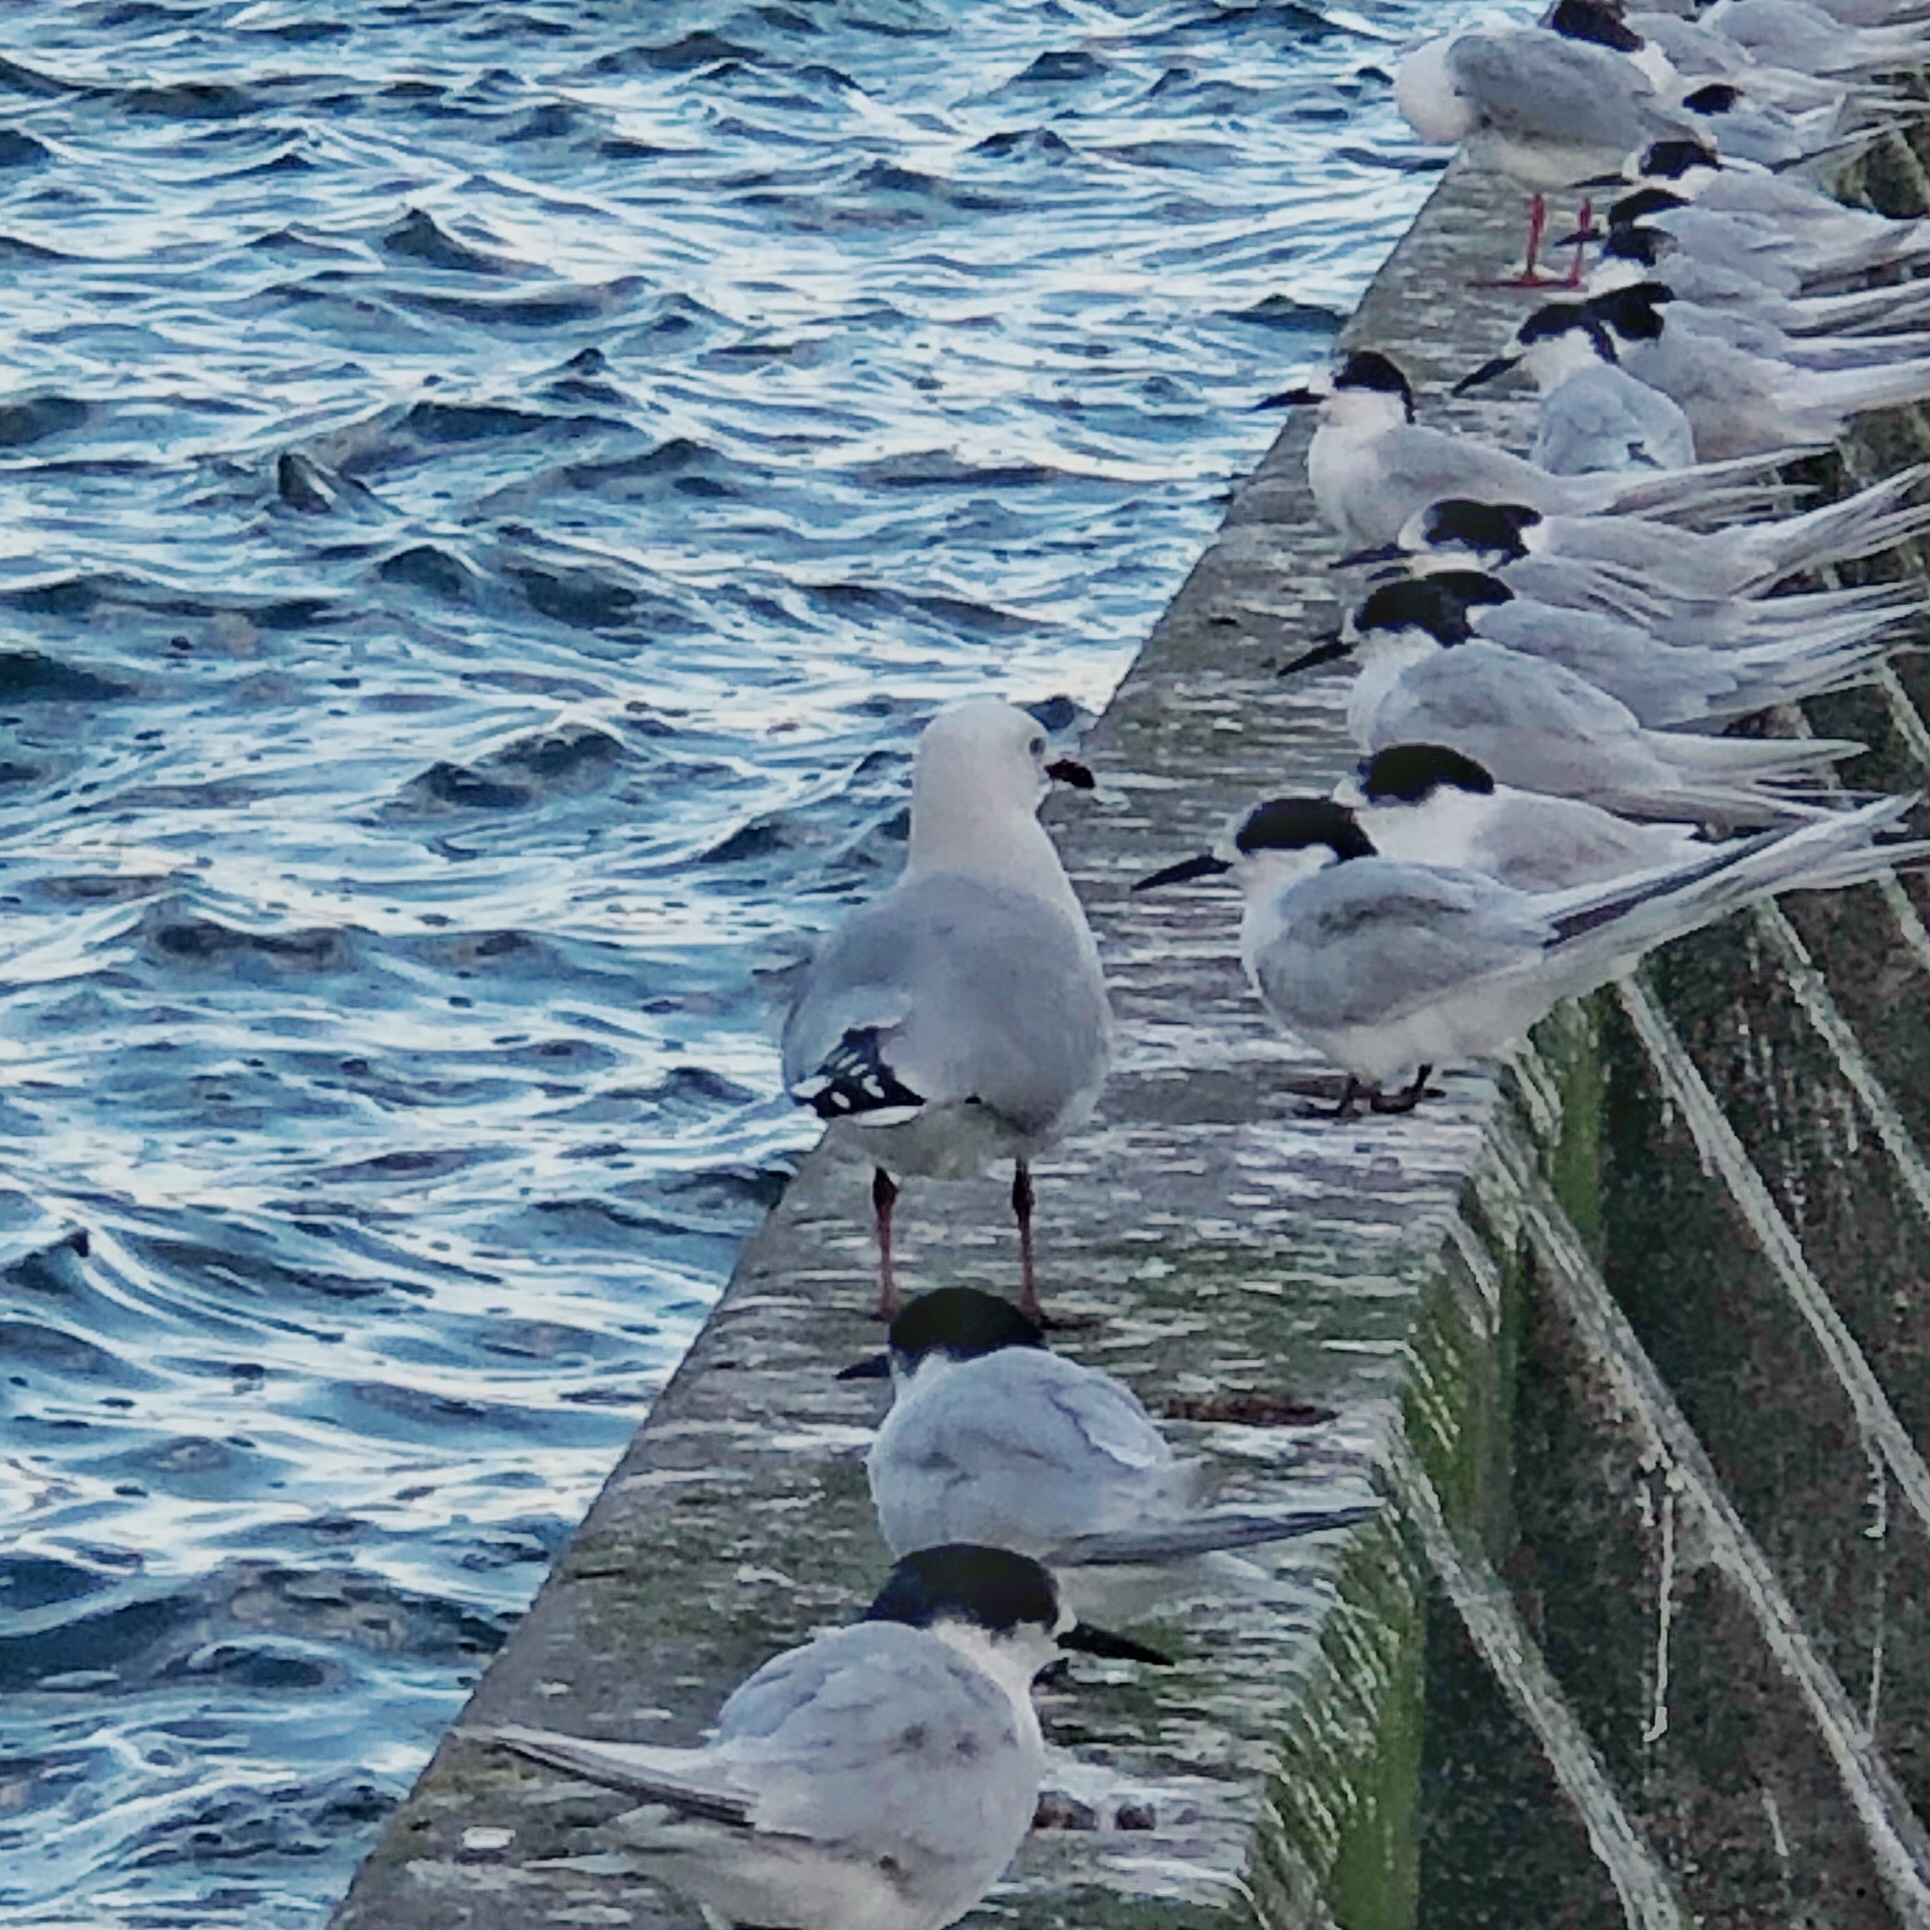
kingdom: Animalia
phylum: Chordata
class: Aves
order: Charadriiformes
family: Laridae
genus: Chroicocephalus
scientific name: Chroicocephalus novaehollandiae
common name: Silver gull
